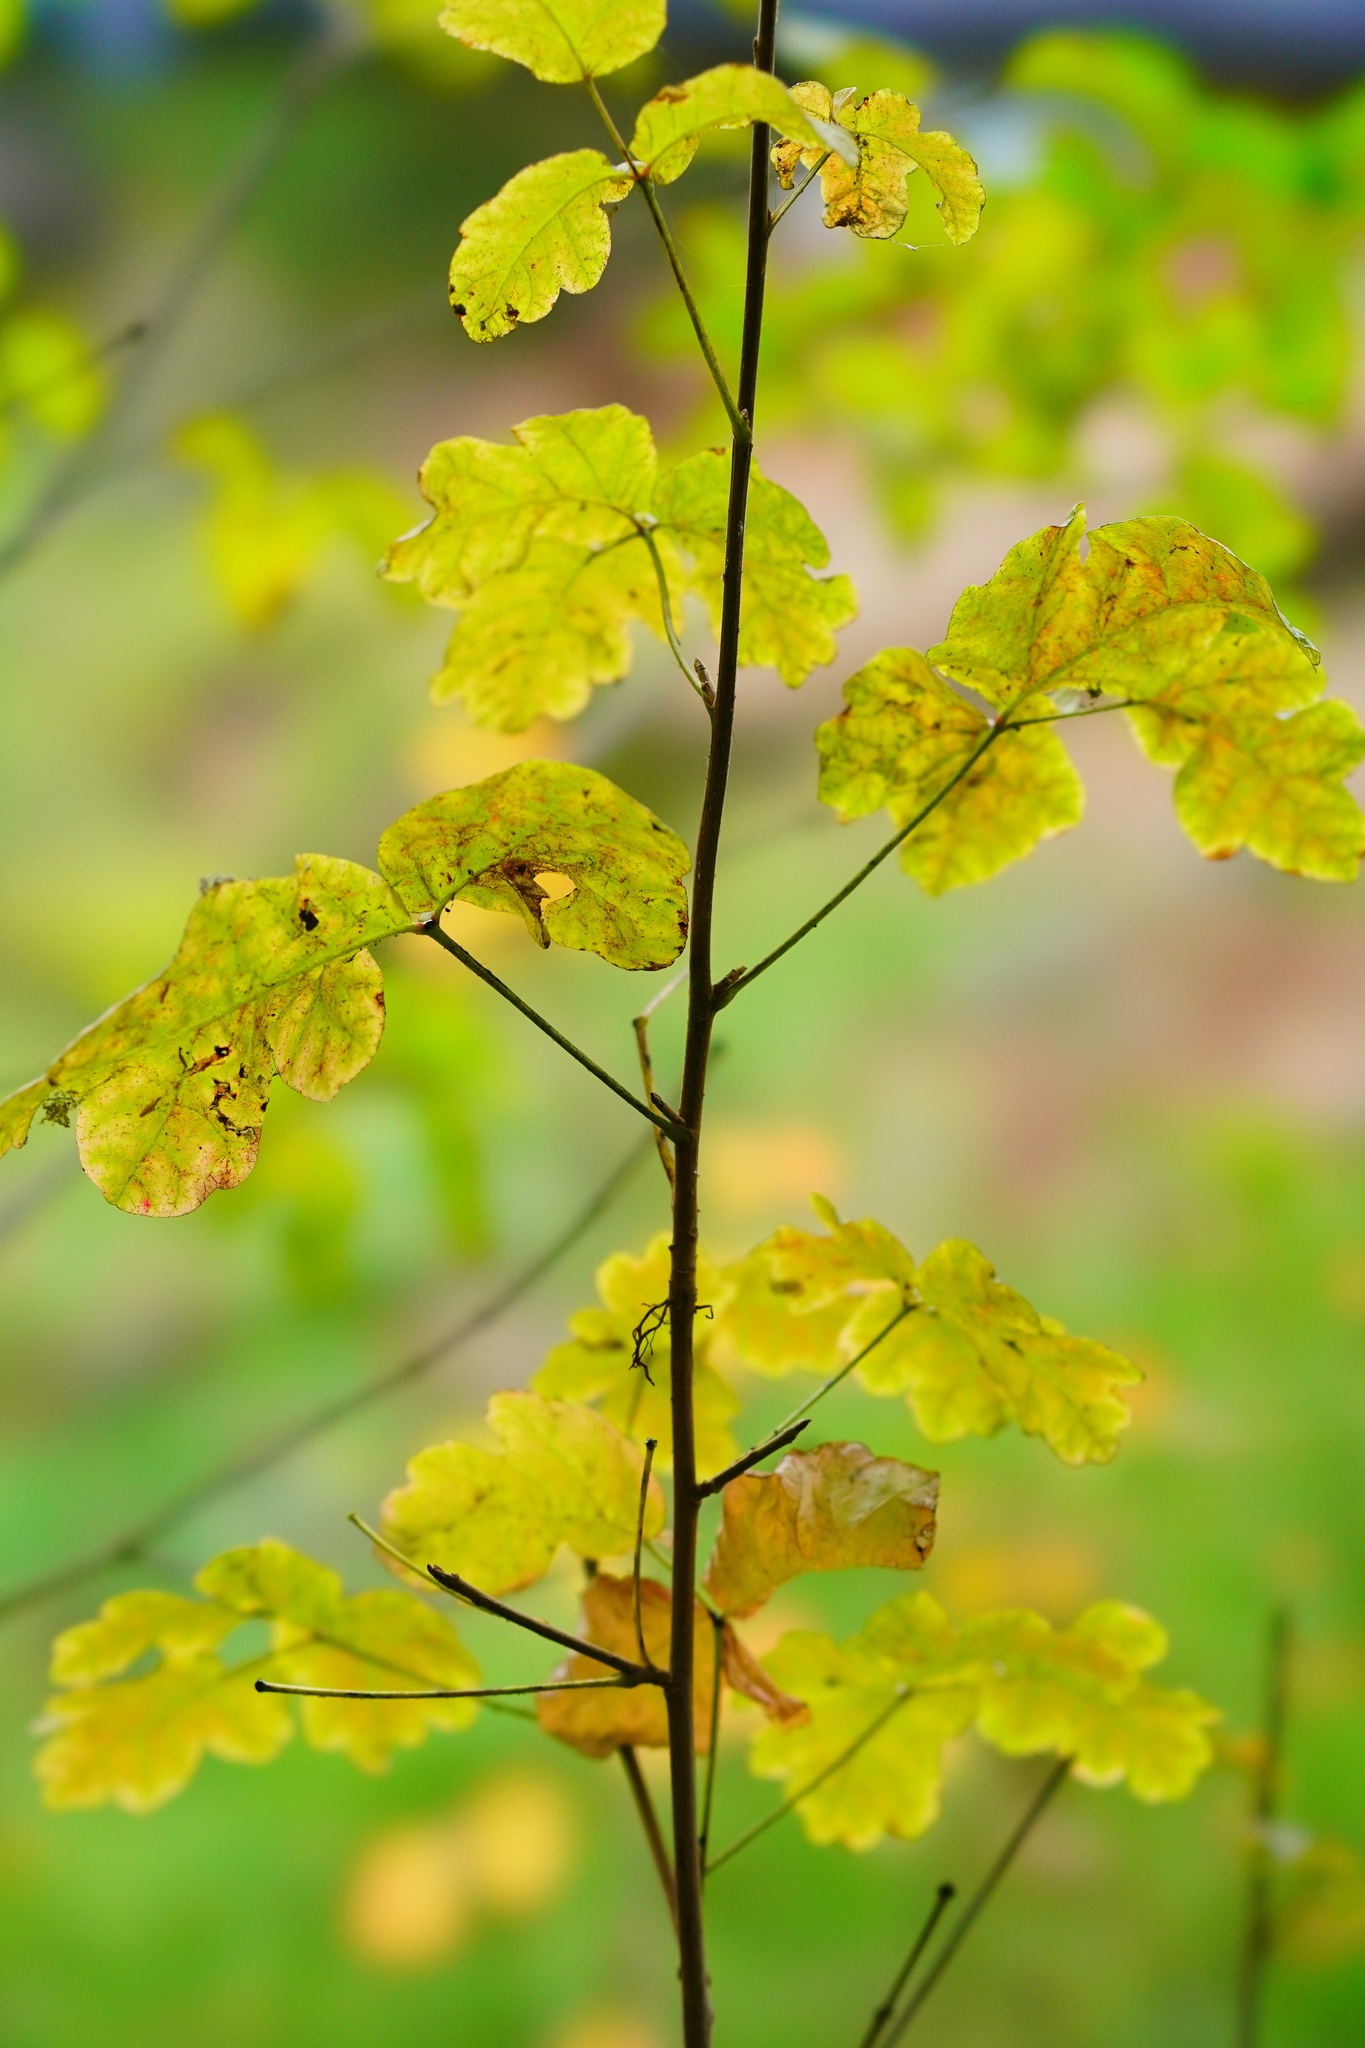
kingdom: Plantae
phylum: Tracheophyta
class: Magnoliopsida
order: Sapindales
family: Anacardiaceae
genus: Toxicodendron
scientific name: Toxicodendron diversilobum
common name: Pacific poison-oak
